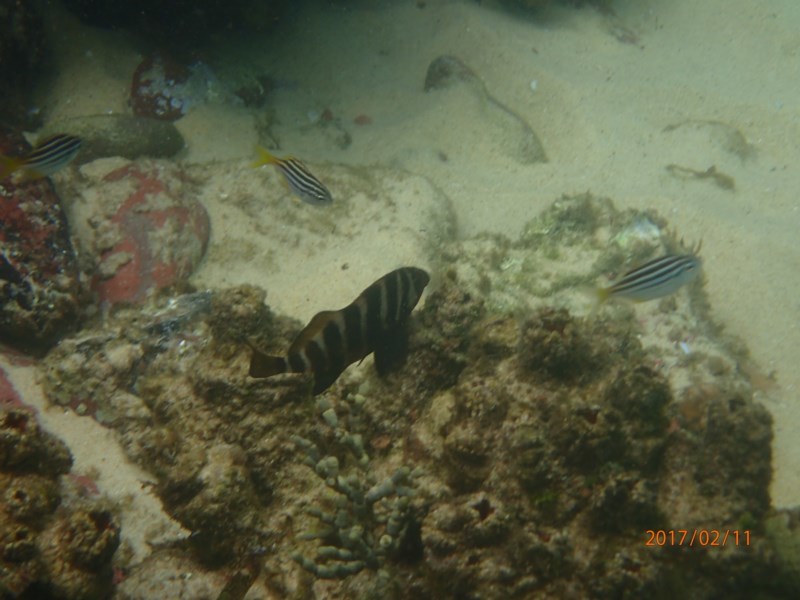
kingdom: Animalia
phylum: Chordata
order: Perciformes
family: Cheilodactylidae
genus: Cheilodactylus
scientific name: Cheilodactylus spectabilis
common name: Red moki
